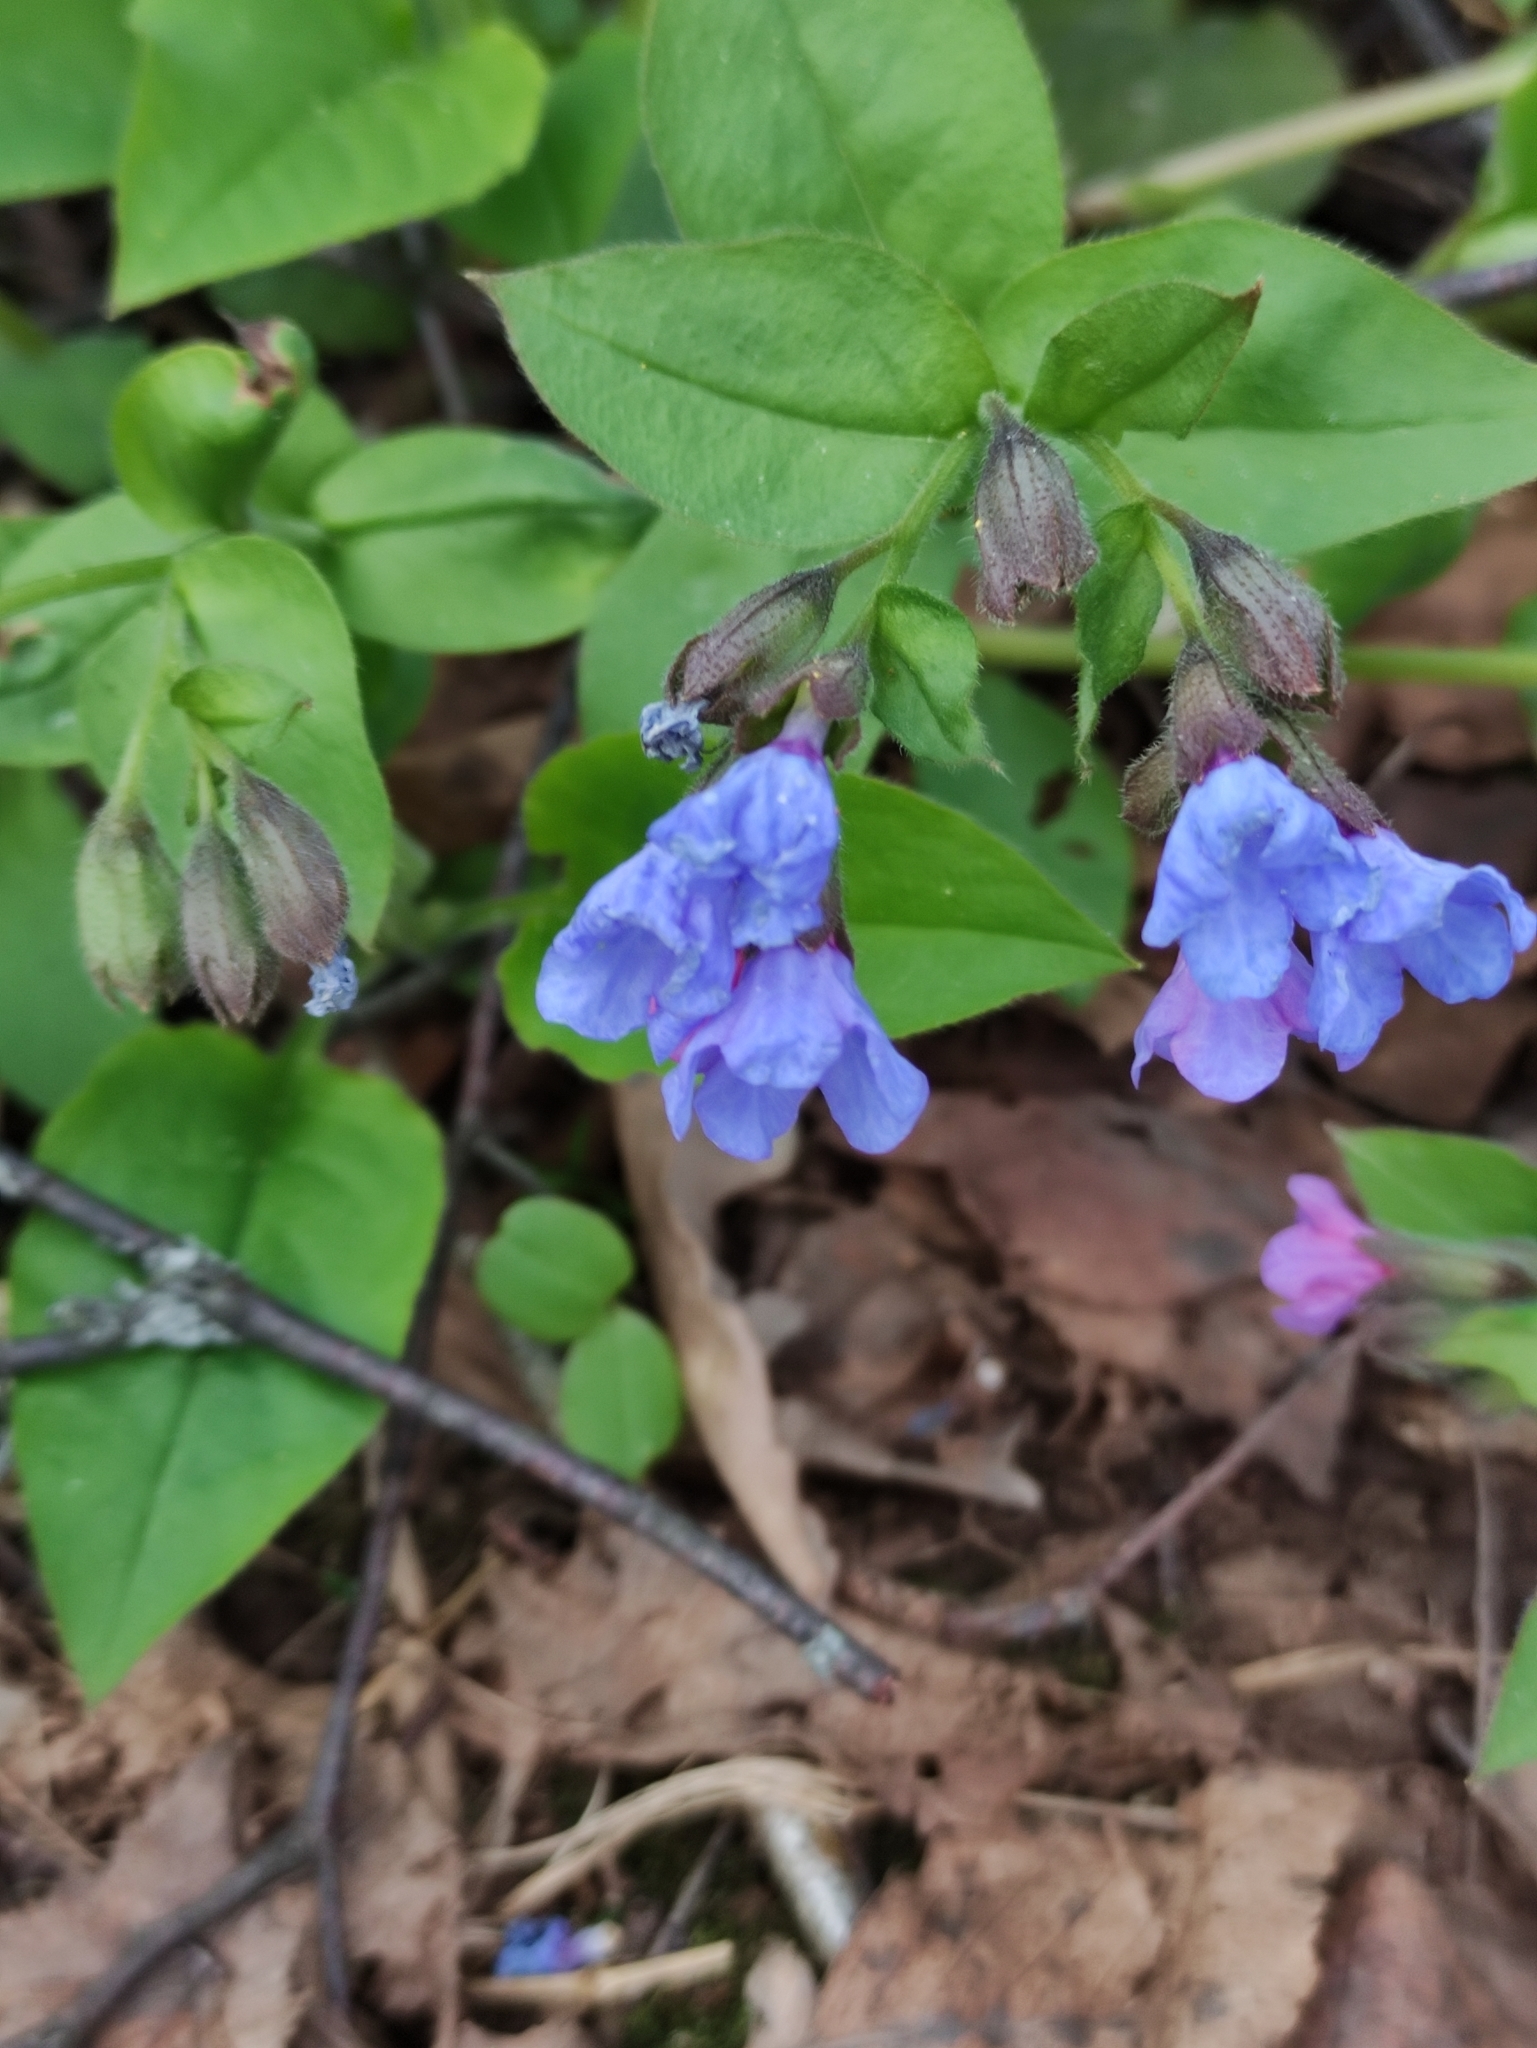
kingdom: Plantae
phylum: Tracheophyta
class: Magnoliopsida
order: Boraginales
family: Boraginaceae
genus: Pulmonaria
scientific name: Pulmonaria obscura
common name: Suffolk lungwort
